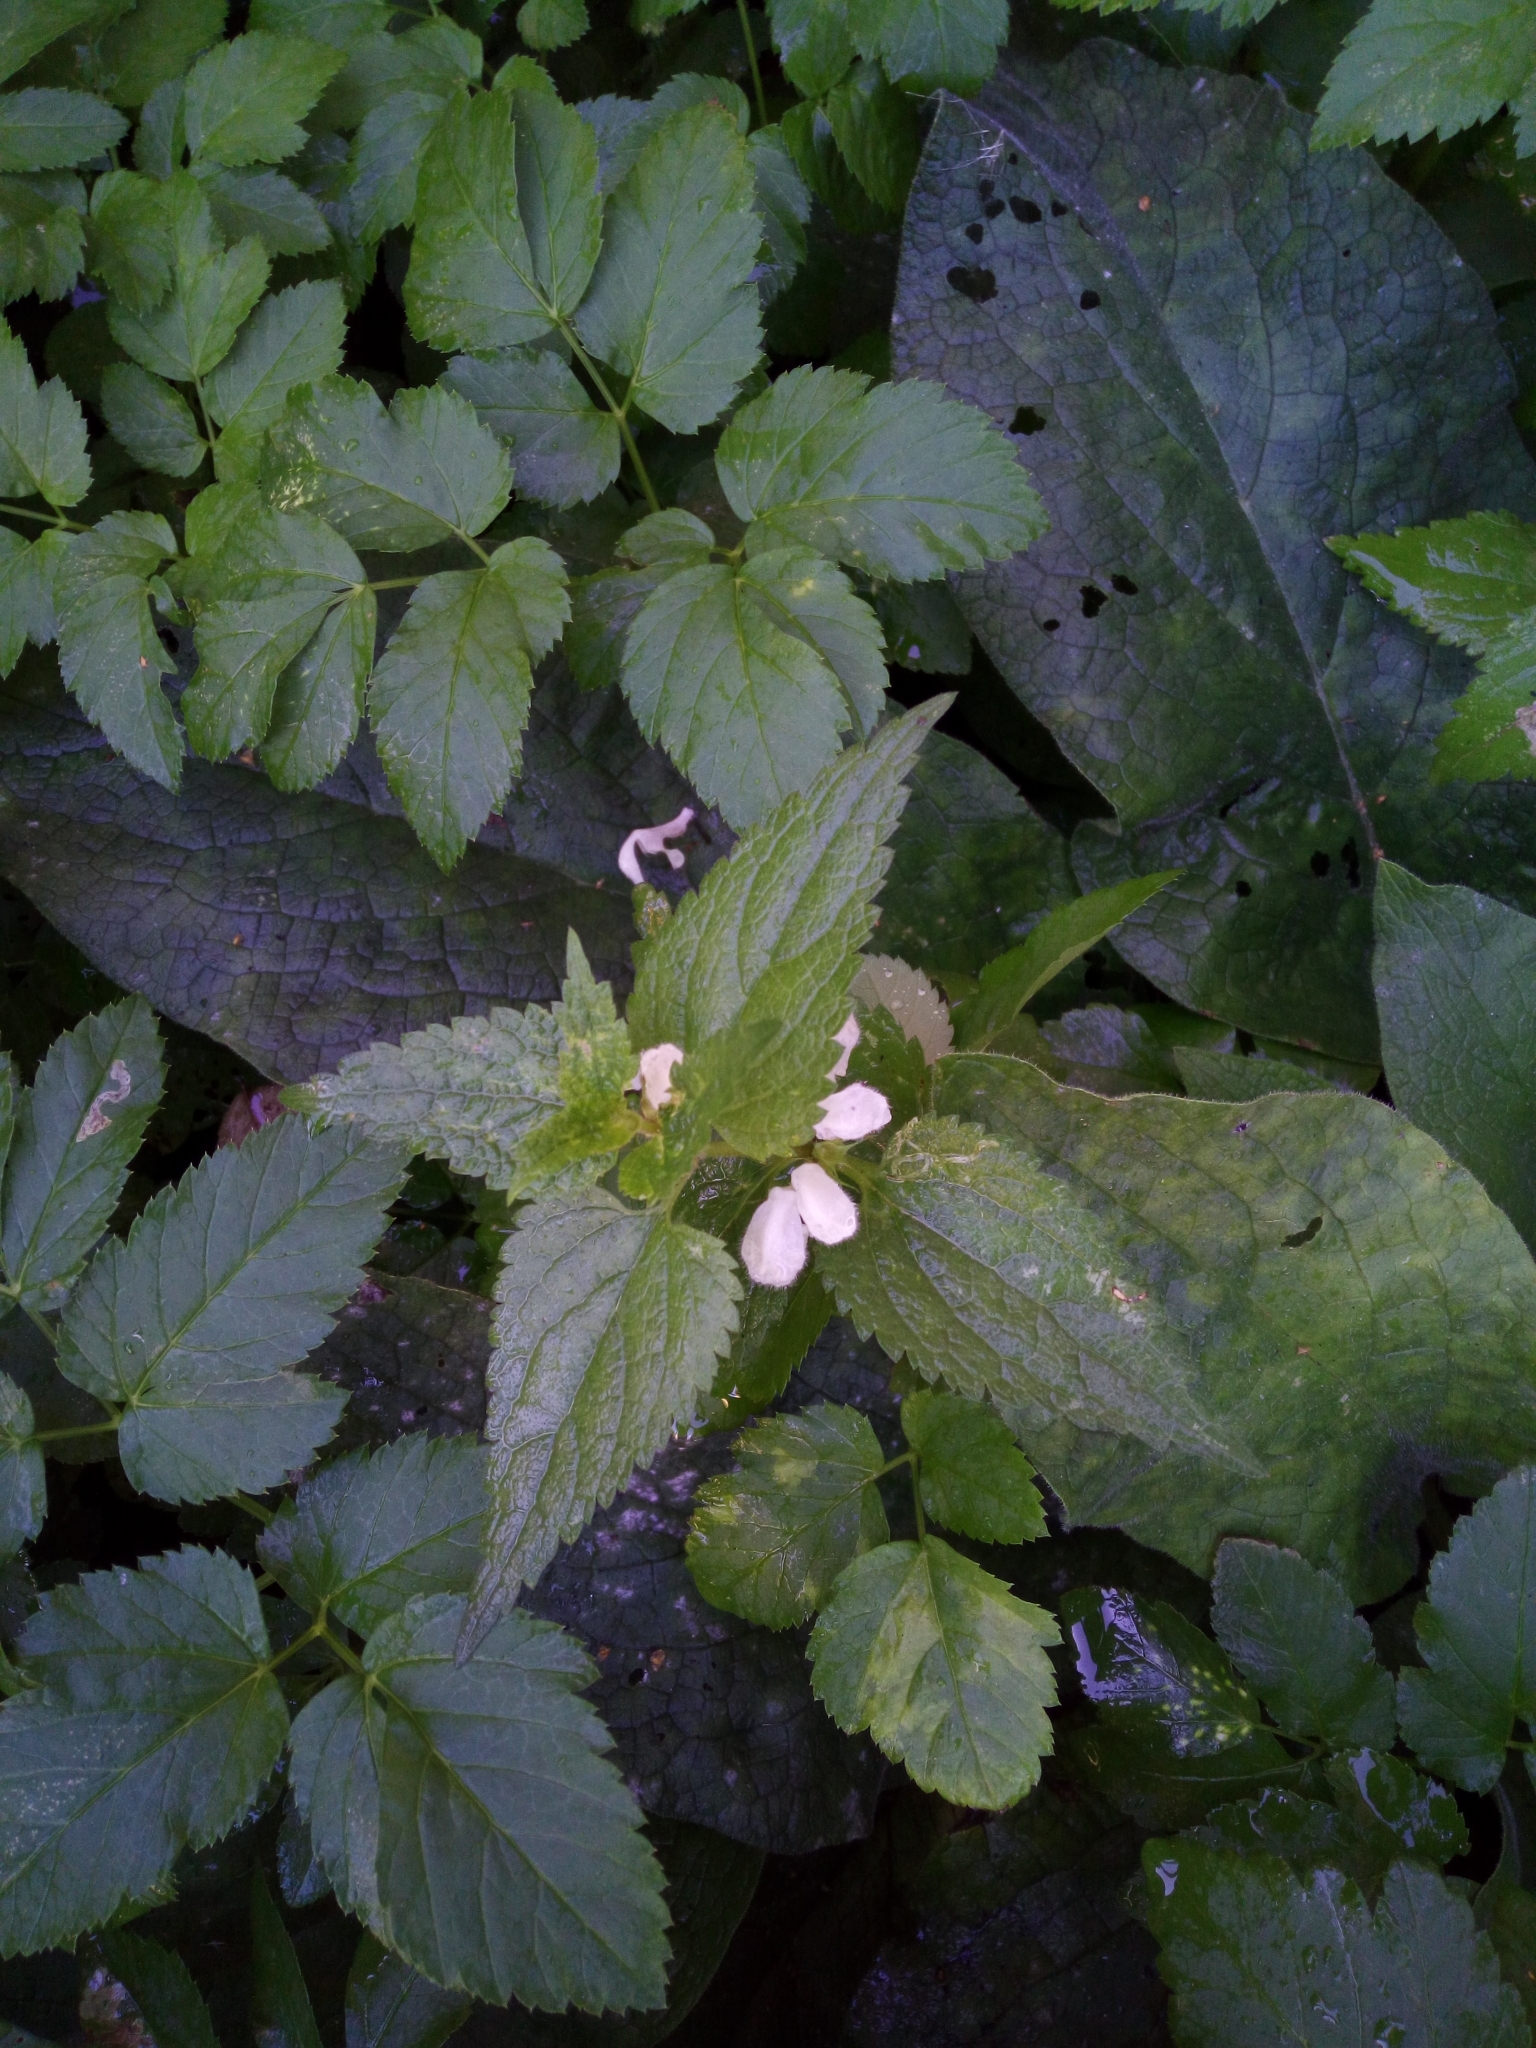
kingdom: Plantae
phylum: Tracheophyta
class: Magnoliopsida
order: Lamiales
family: Lamiaceae
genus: Lamium
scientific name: Lamium album
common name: White dead-nettle
